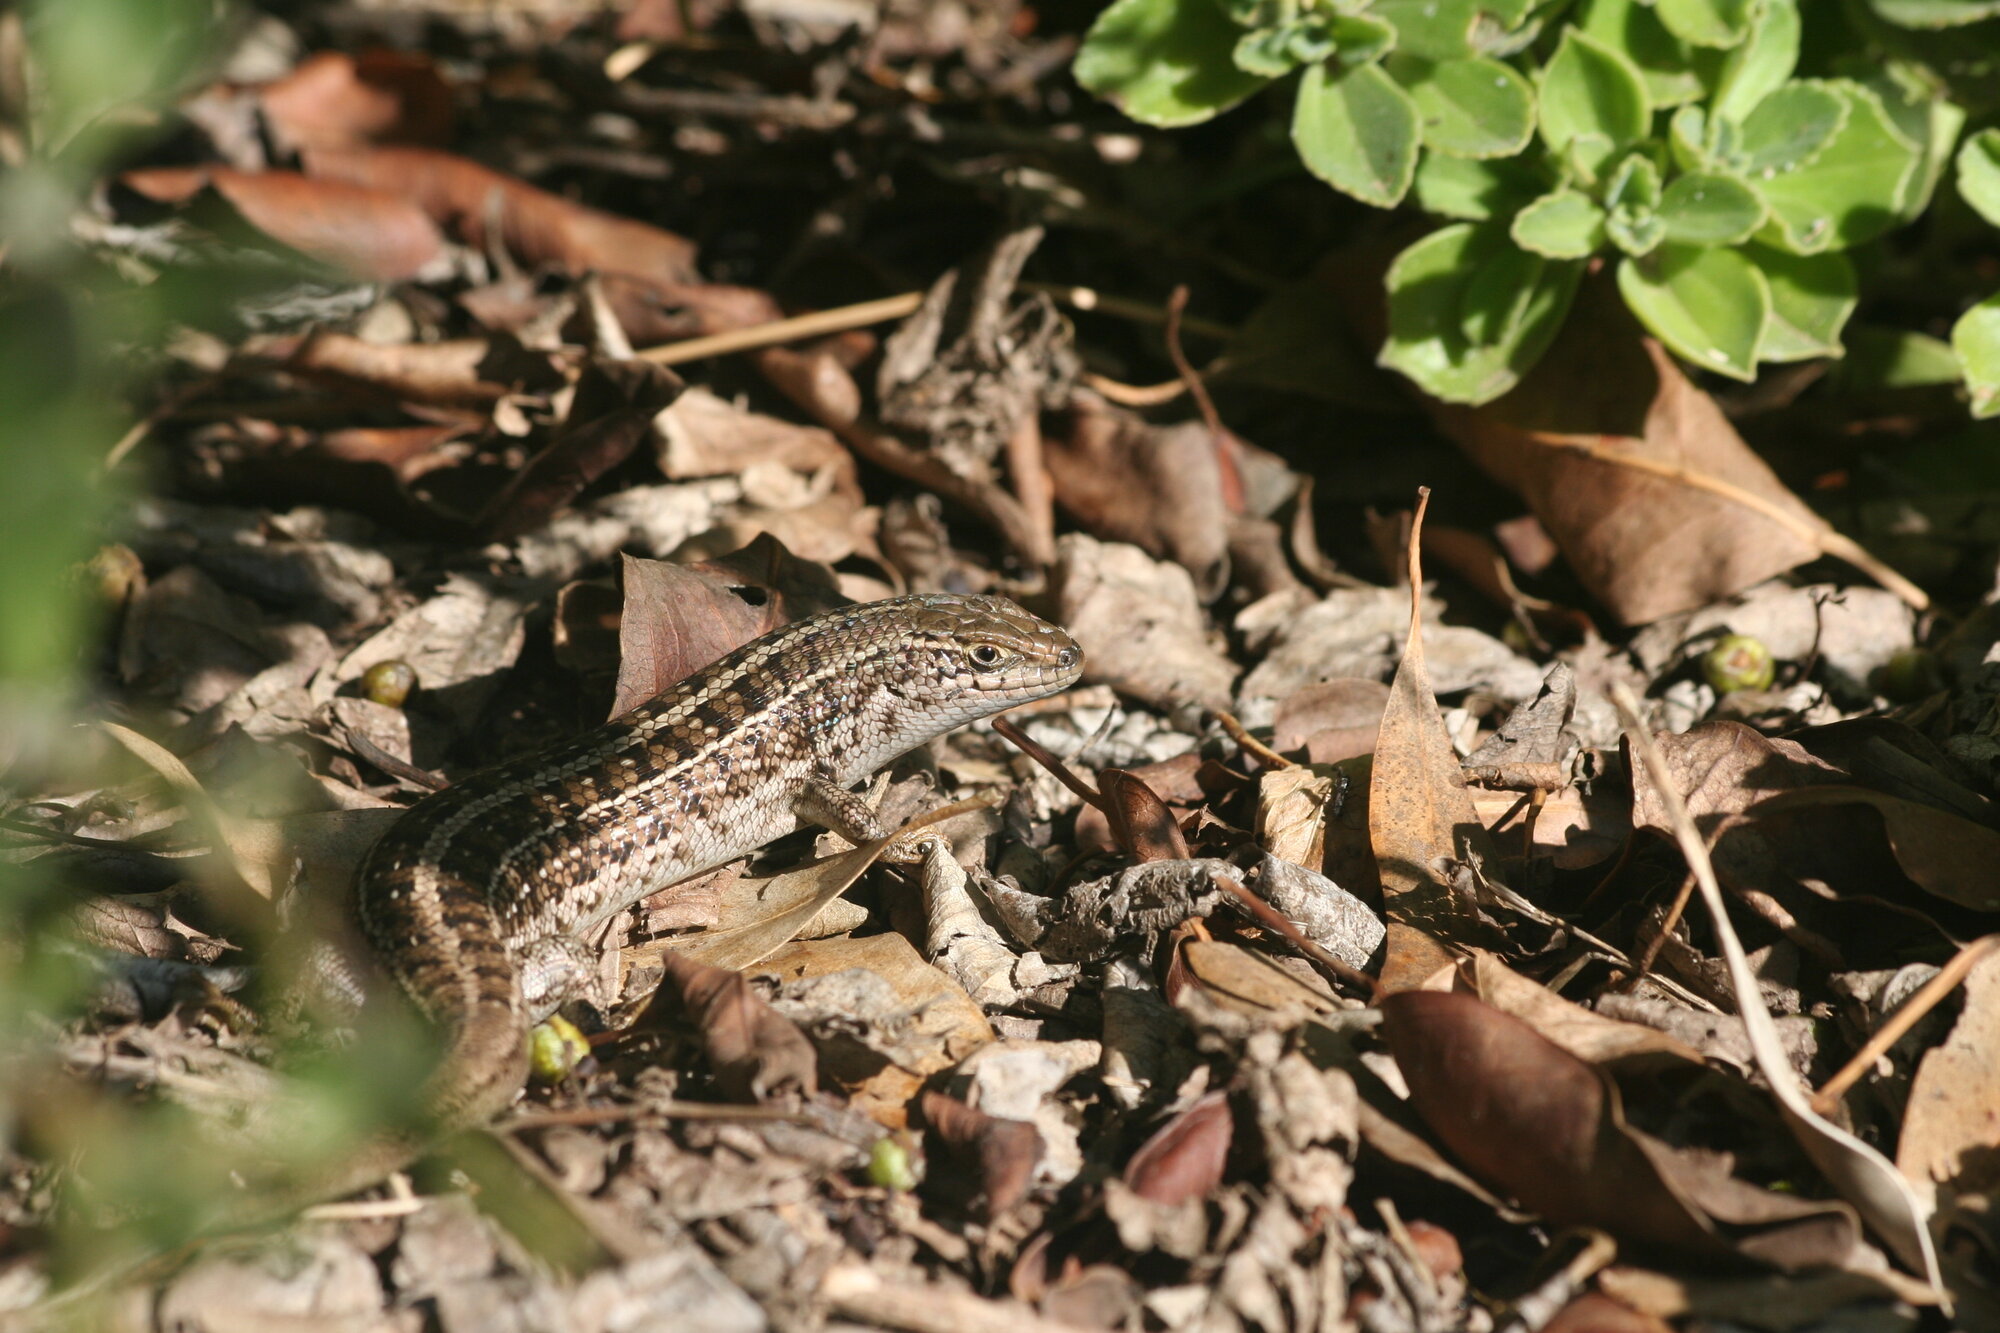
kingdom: Animalia
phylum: Chordata
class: Squamata
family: Scincidae
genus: Trachylepis
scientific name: Trachylepis capensis
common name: Cape skink
